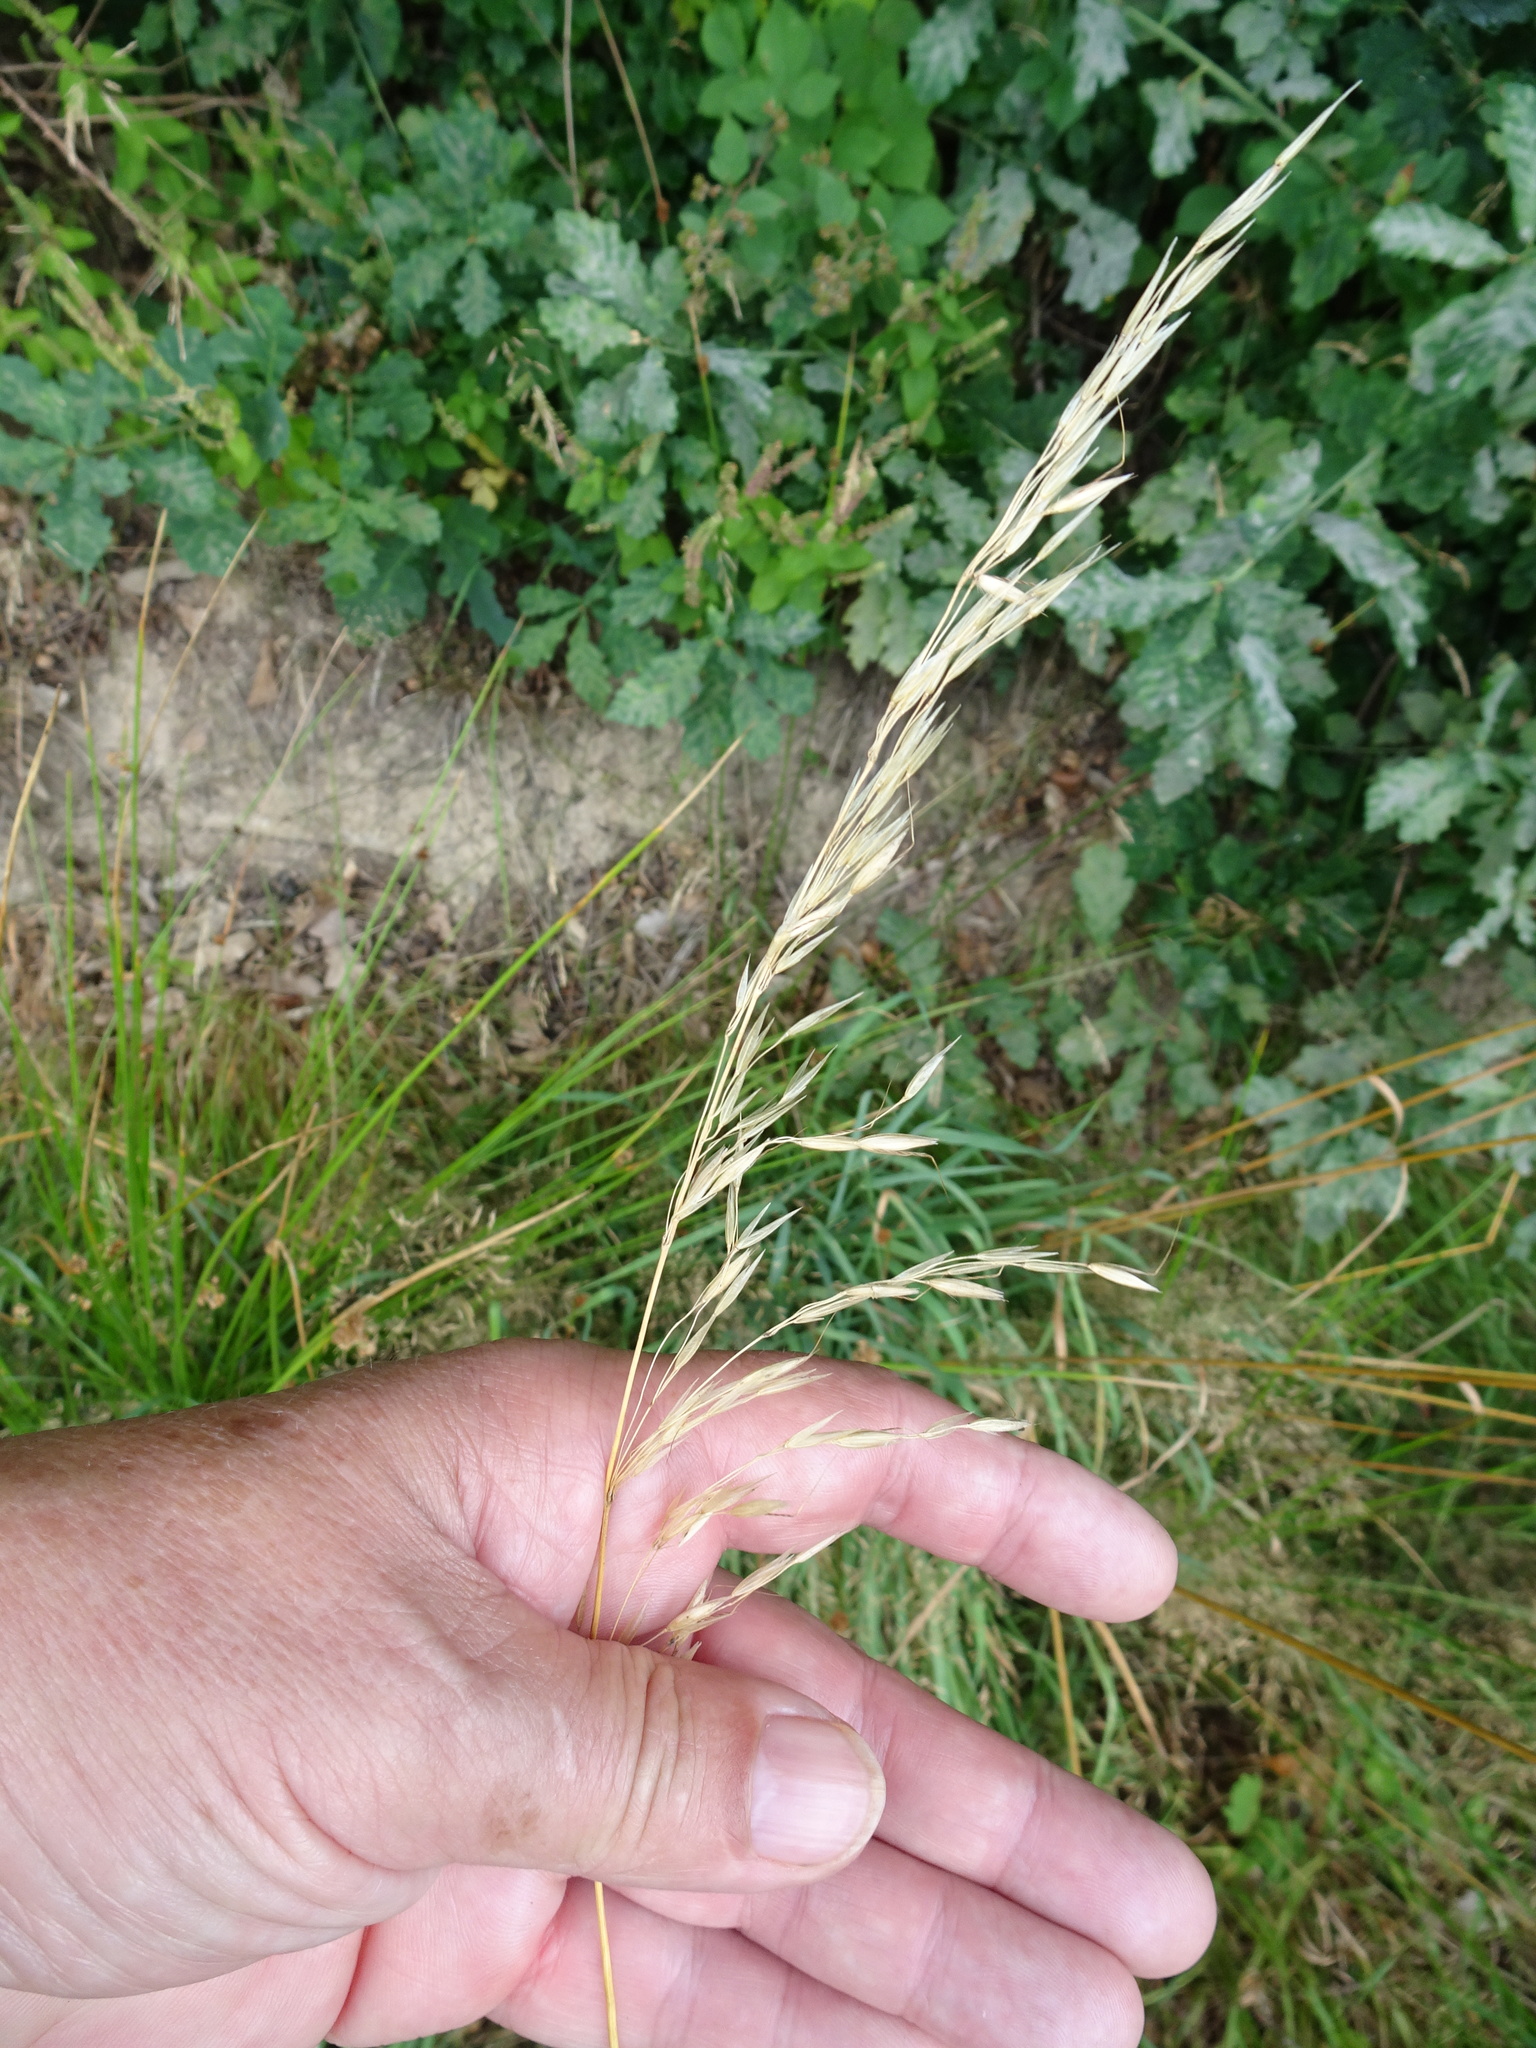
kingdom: Plantae
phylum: Tracheophyta
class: Liliopsida
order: Poales
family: Poaceae
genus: Arrhenatherum
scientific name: Arrhenatherum elatius
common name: Tall oatgrass
